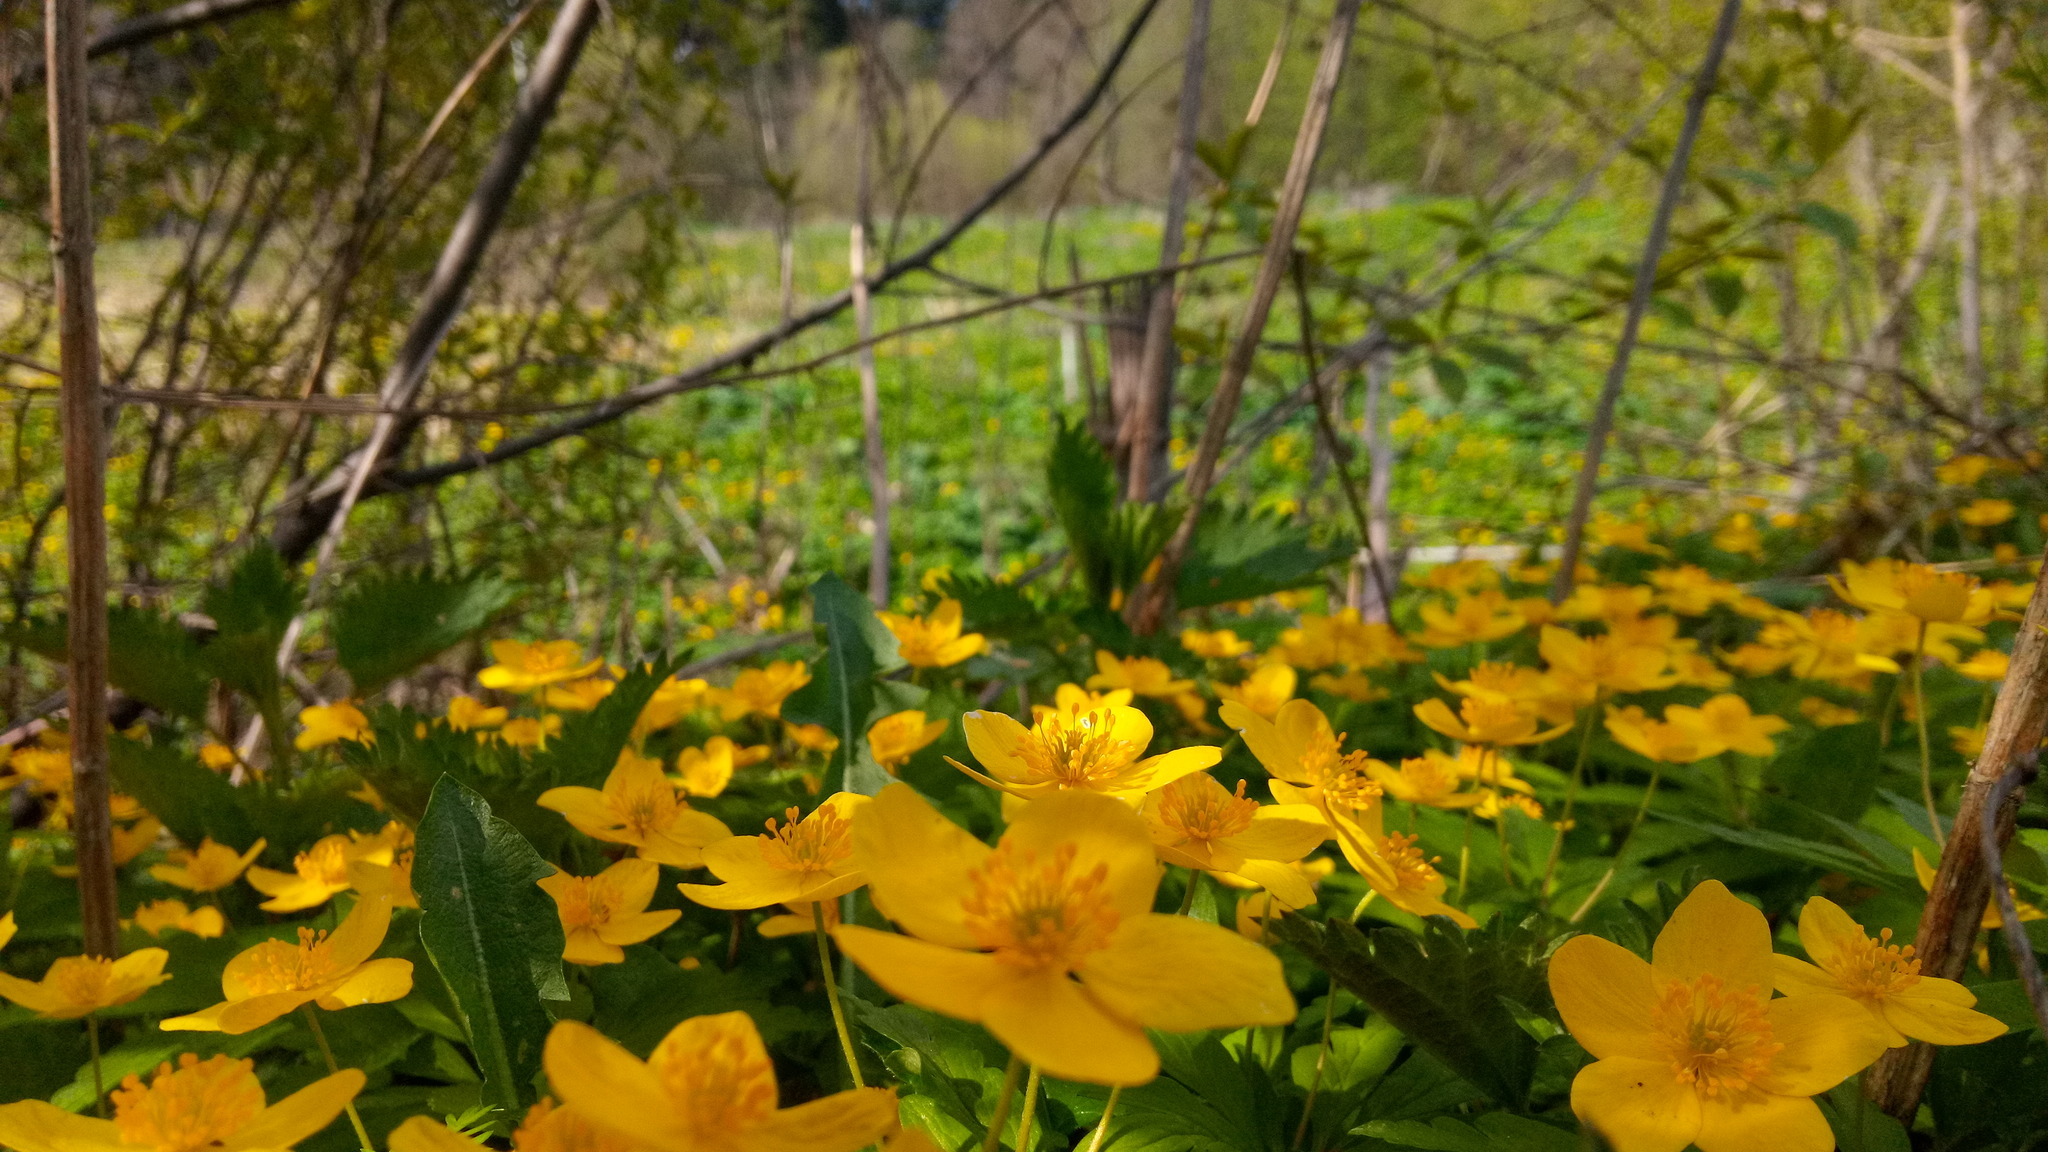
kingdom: Plantae
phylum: Tracheophyta
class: Magnoliopsida
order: Ranunculales
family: Ranunculaceae
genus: Anemone
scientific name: Anemone ranunculoides
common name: Yellow anemone
